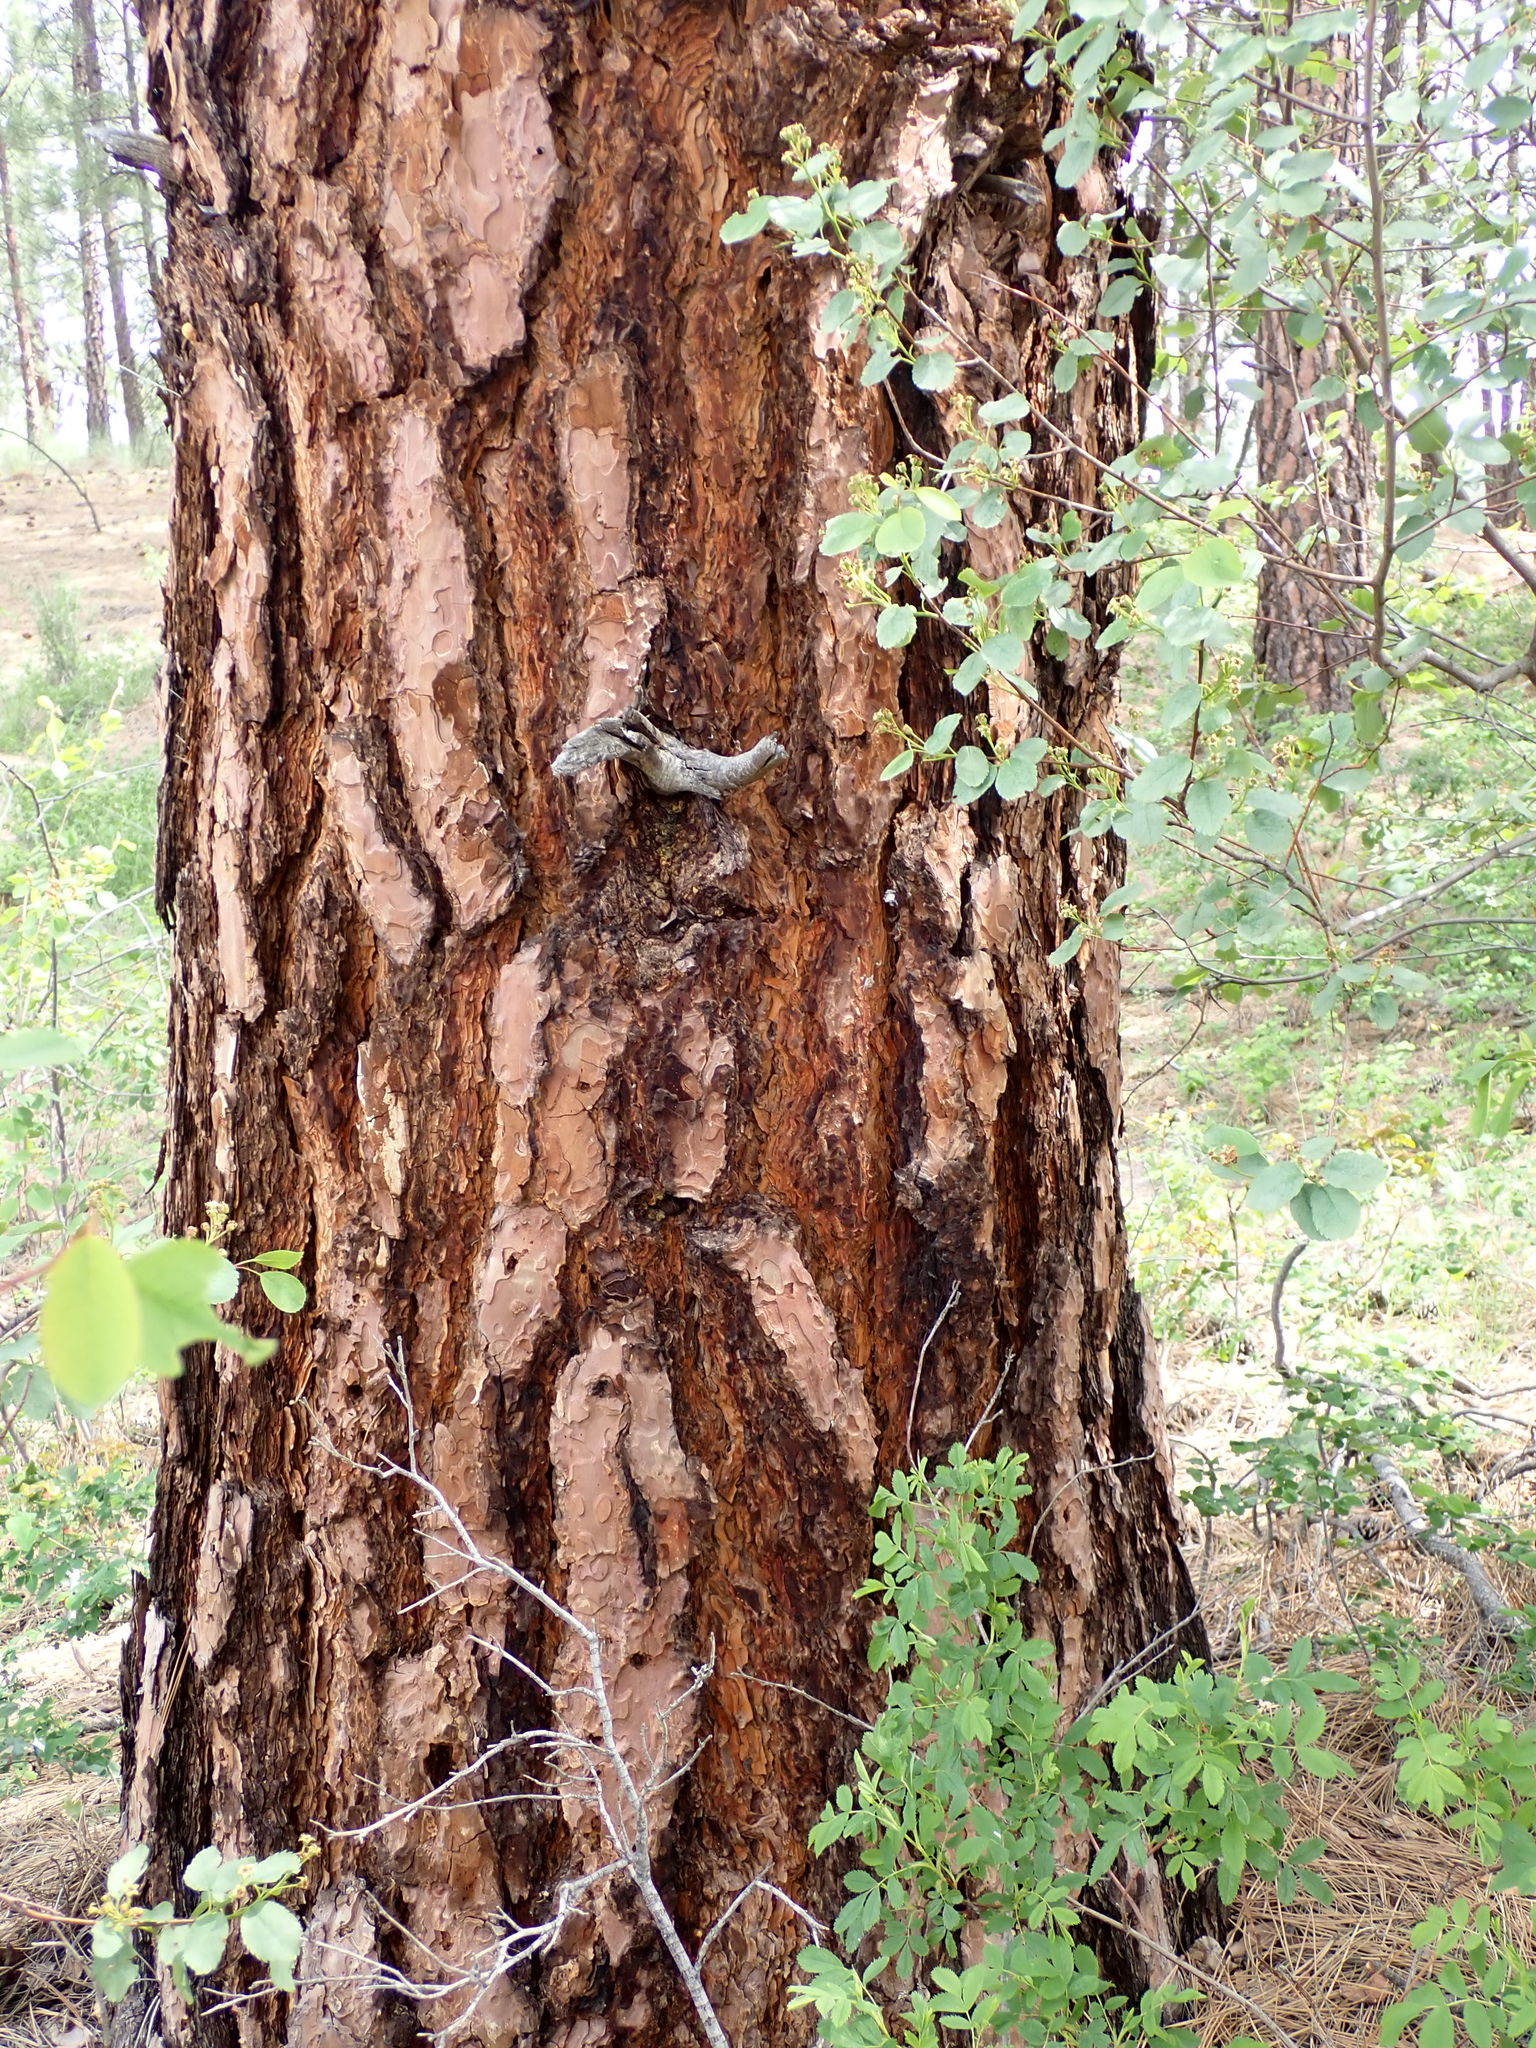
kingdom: Plantae
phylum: Tracheophyta
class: Pinopsida
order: Pinales
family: Pinaceae
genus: Pinus
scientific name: Pinus ponderosa
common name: Western yellow-pine
